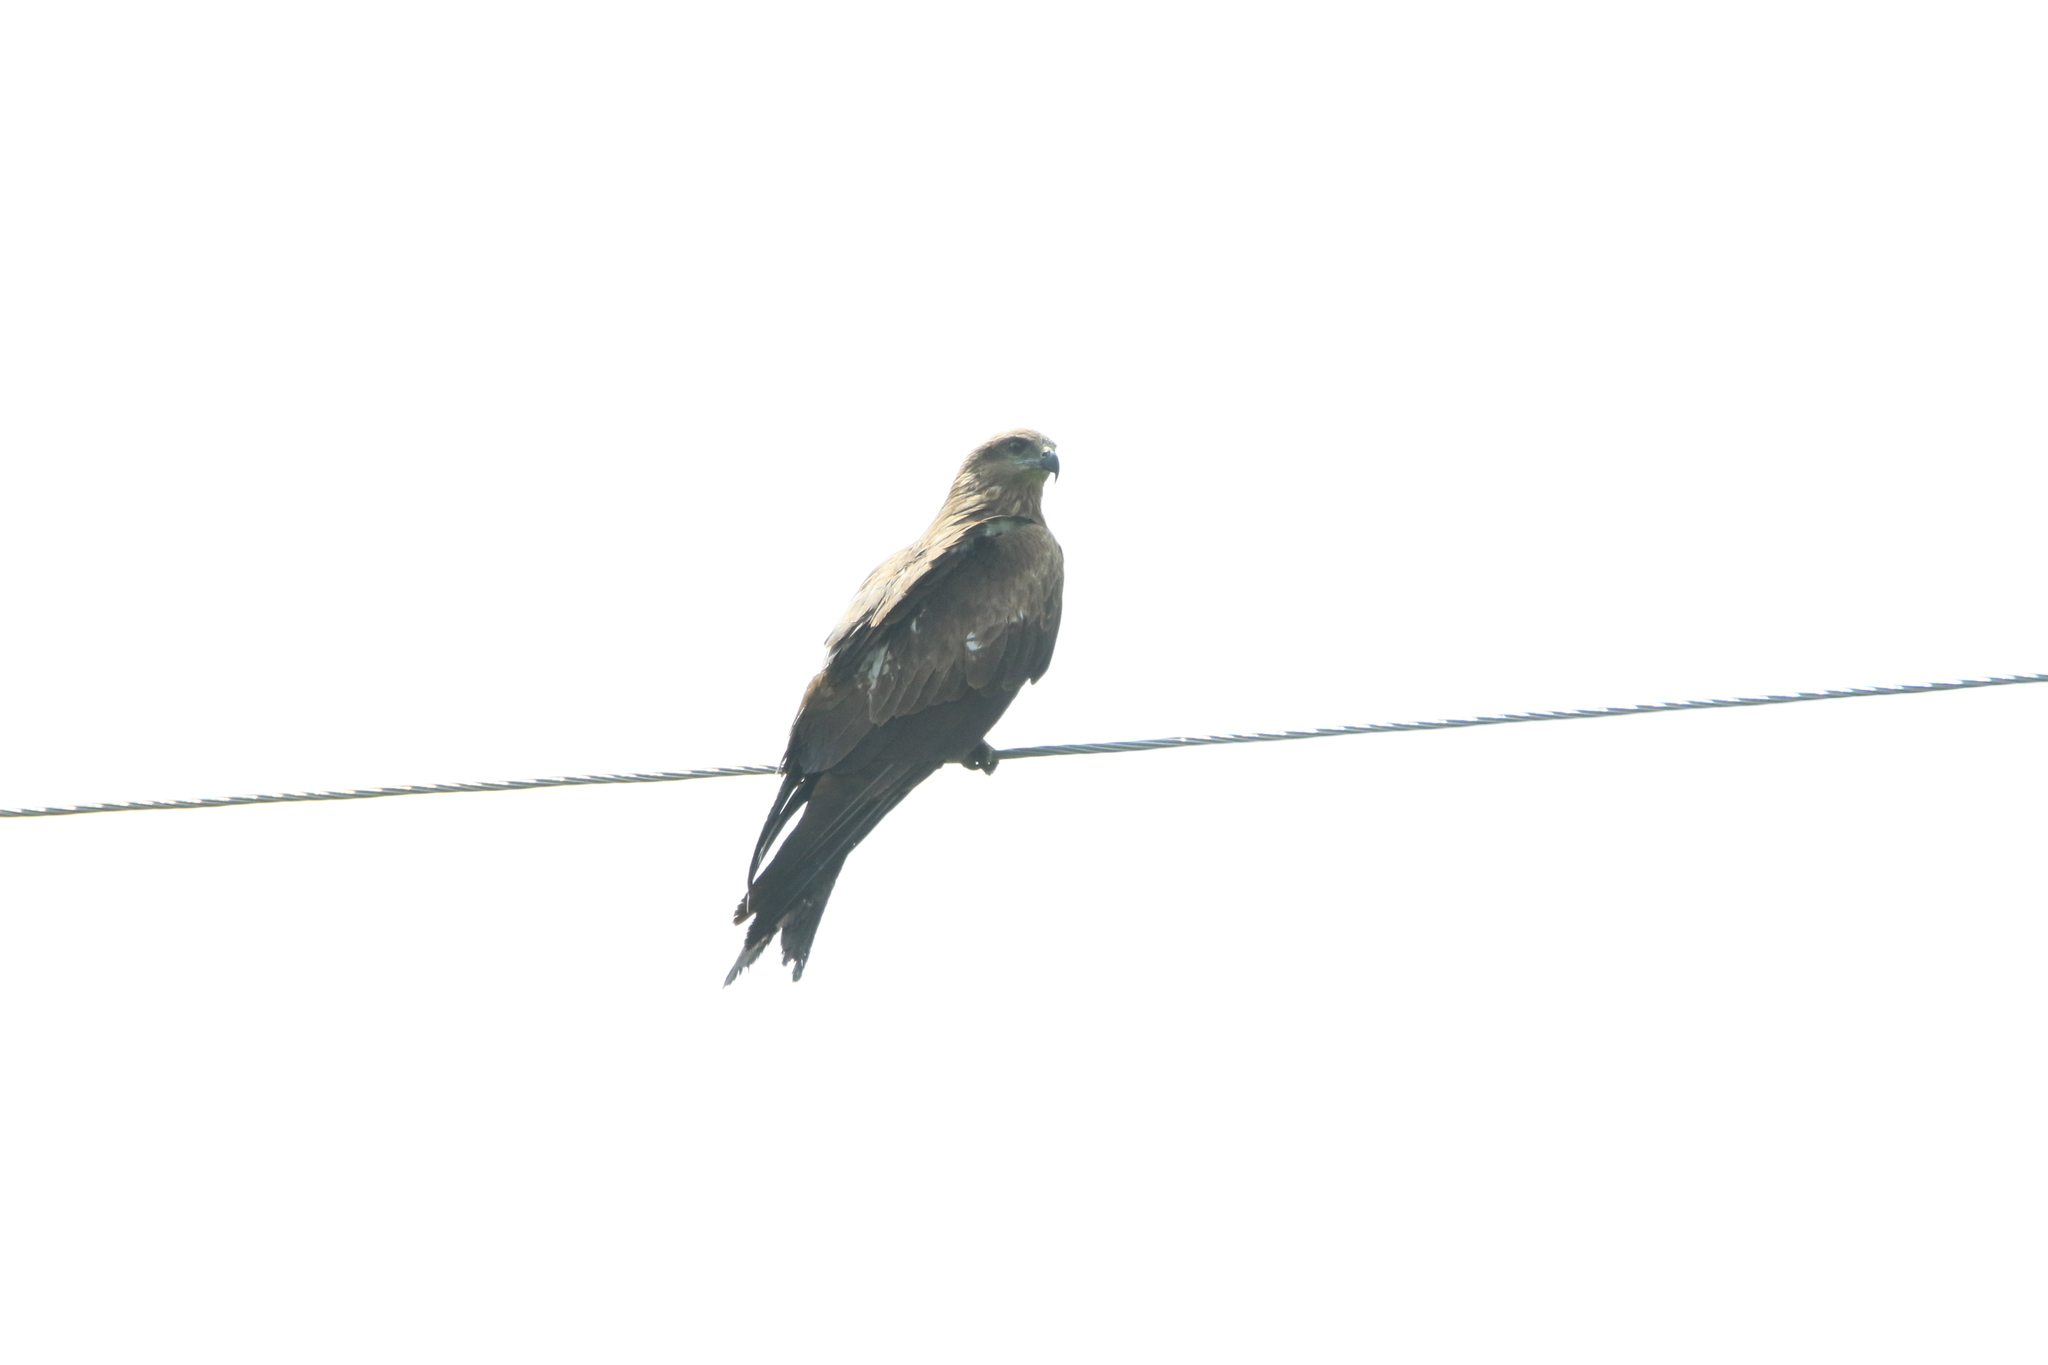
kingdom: Animalia
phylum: Chordata
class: Aves
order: Accipitriformes
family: Accipitridae
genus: Milvus
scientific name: Milvus migrans
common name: Black kite
